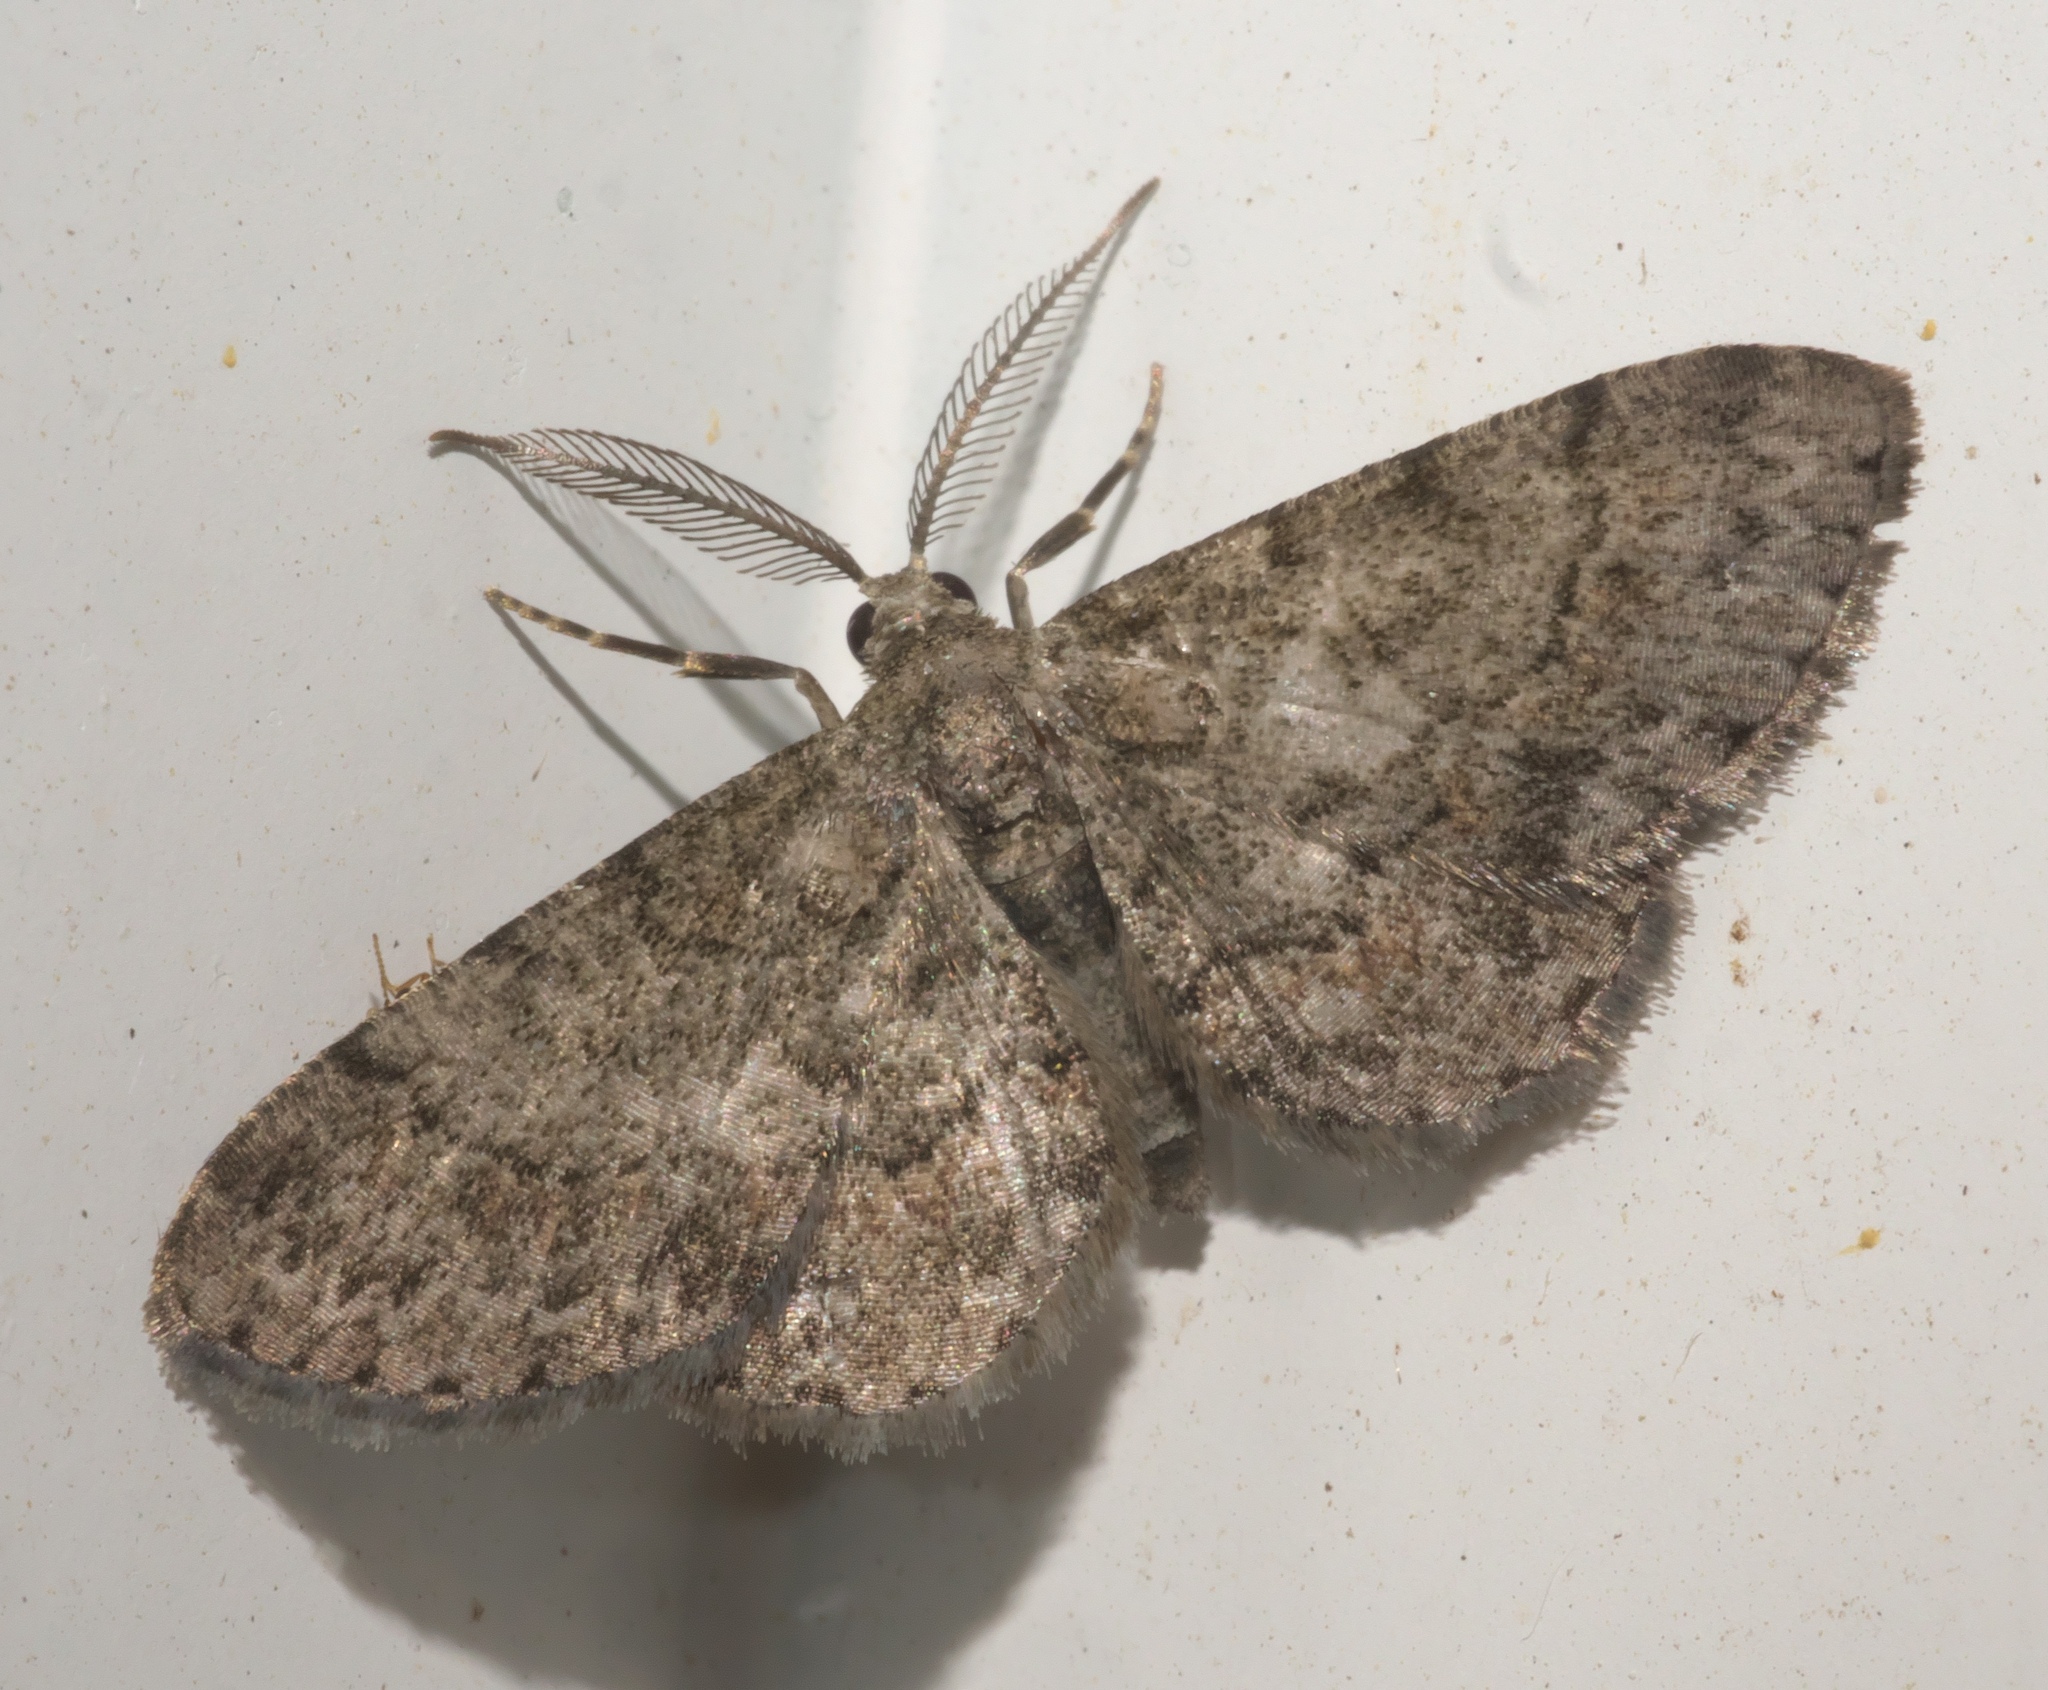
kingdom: Animalia
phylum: Arthropoda
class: Insecta
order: Lepidoptera
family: Geometridae
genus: Glenoides
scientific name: Glenoides texanaria
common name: Texas gray
